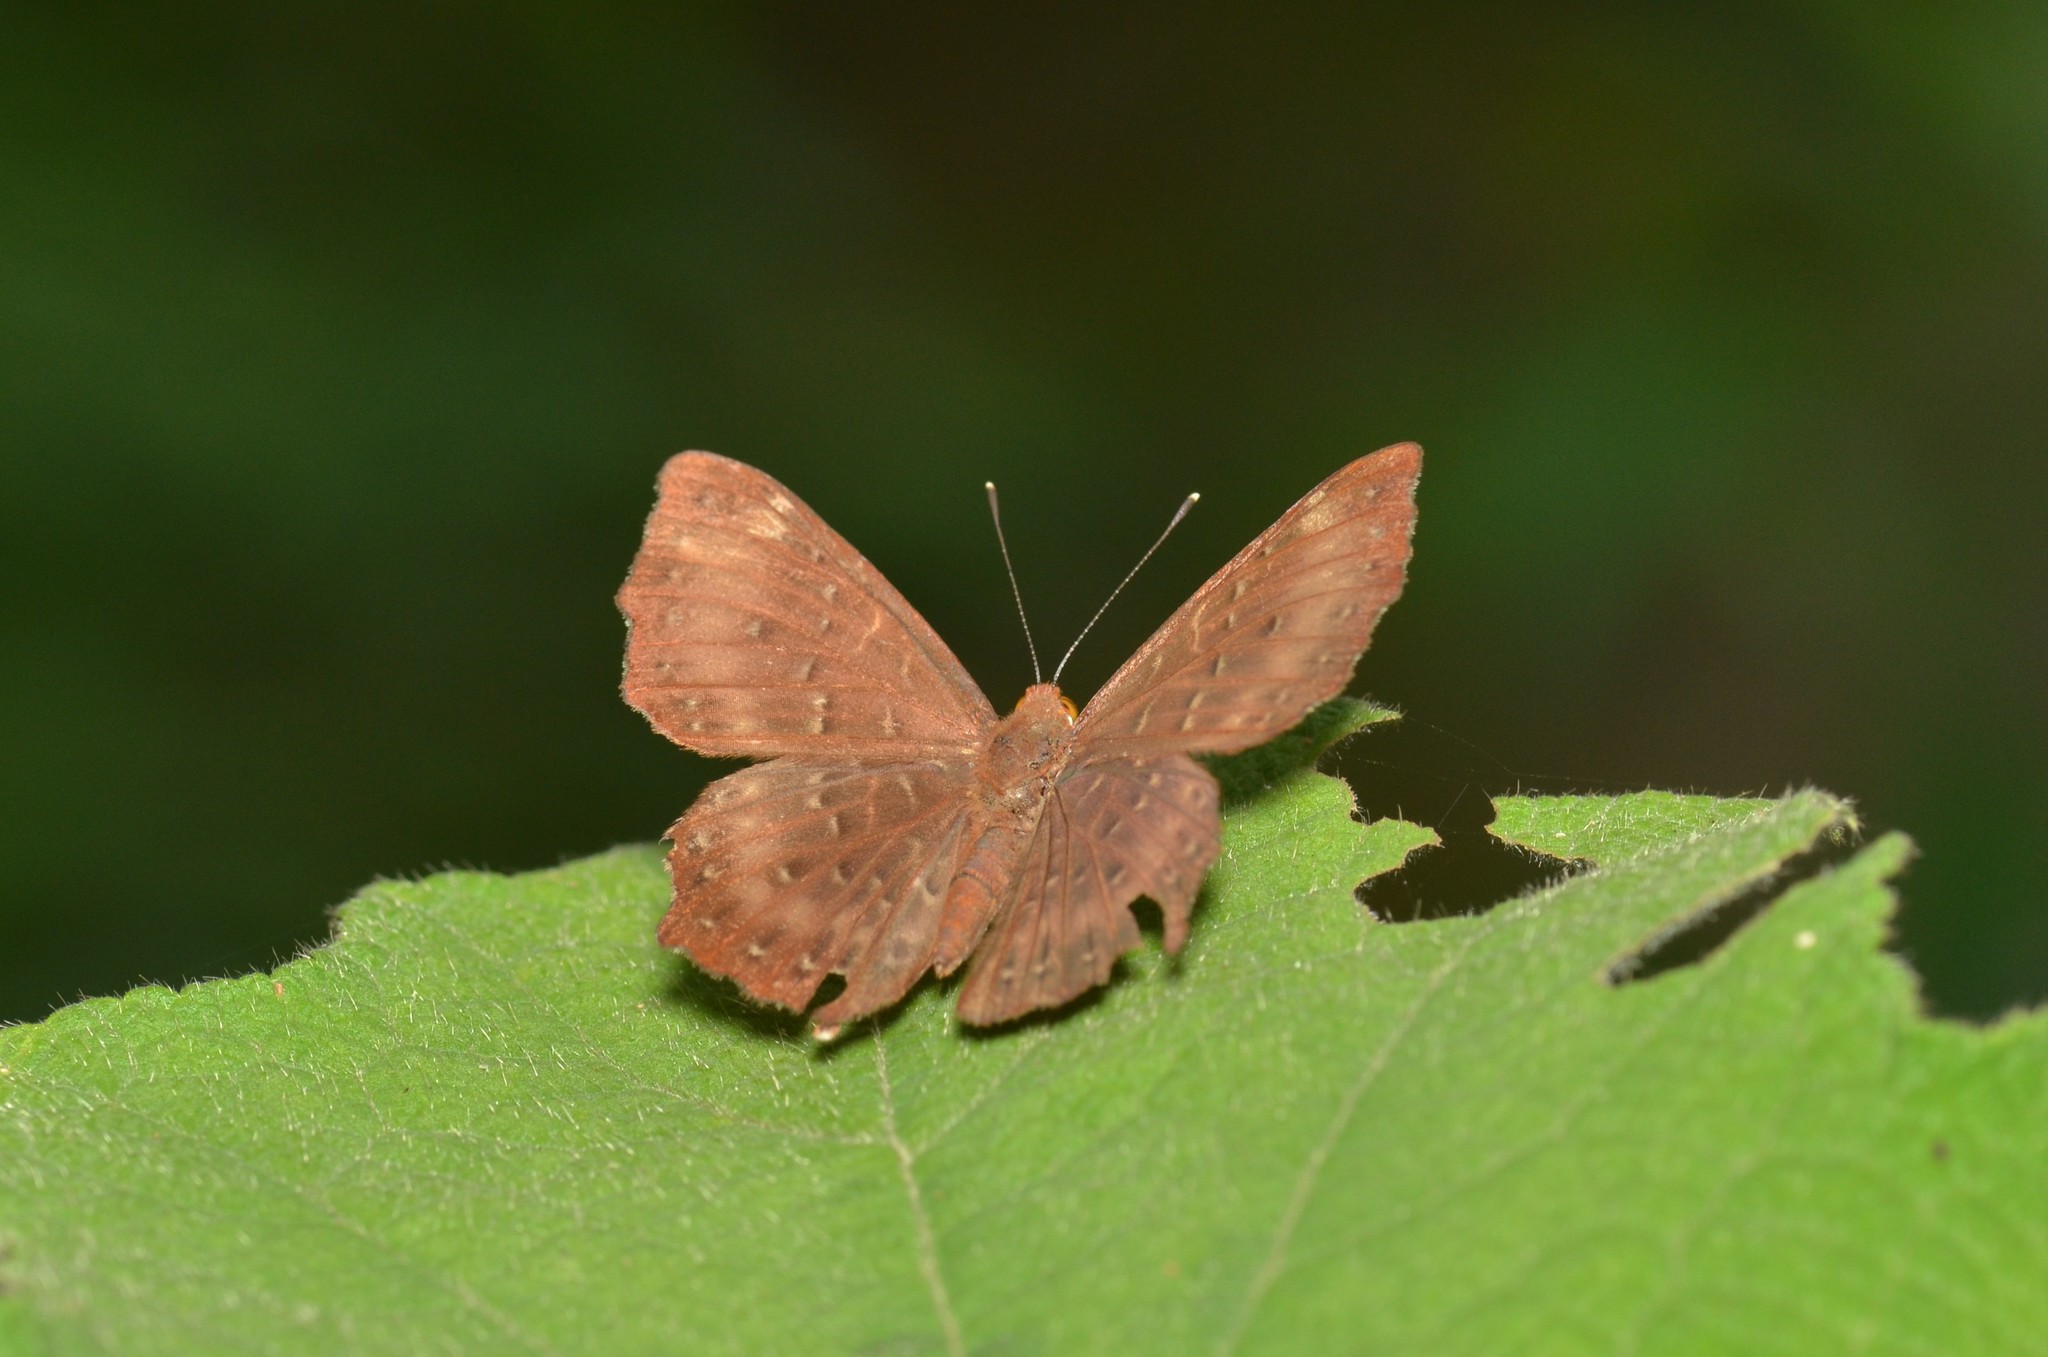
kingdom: Animalia
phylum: Arthropoda
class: Insecta
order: Lepidoptera
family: Riodinidae
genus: Zemeros
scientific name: Zemeros flegyas
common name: Punchinello
